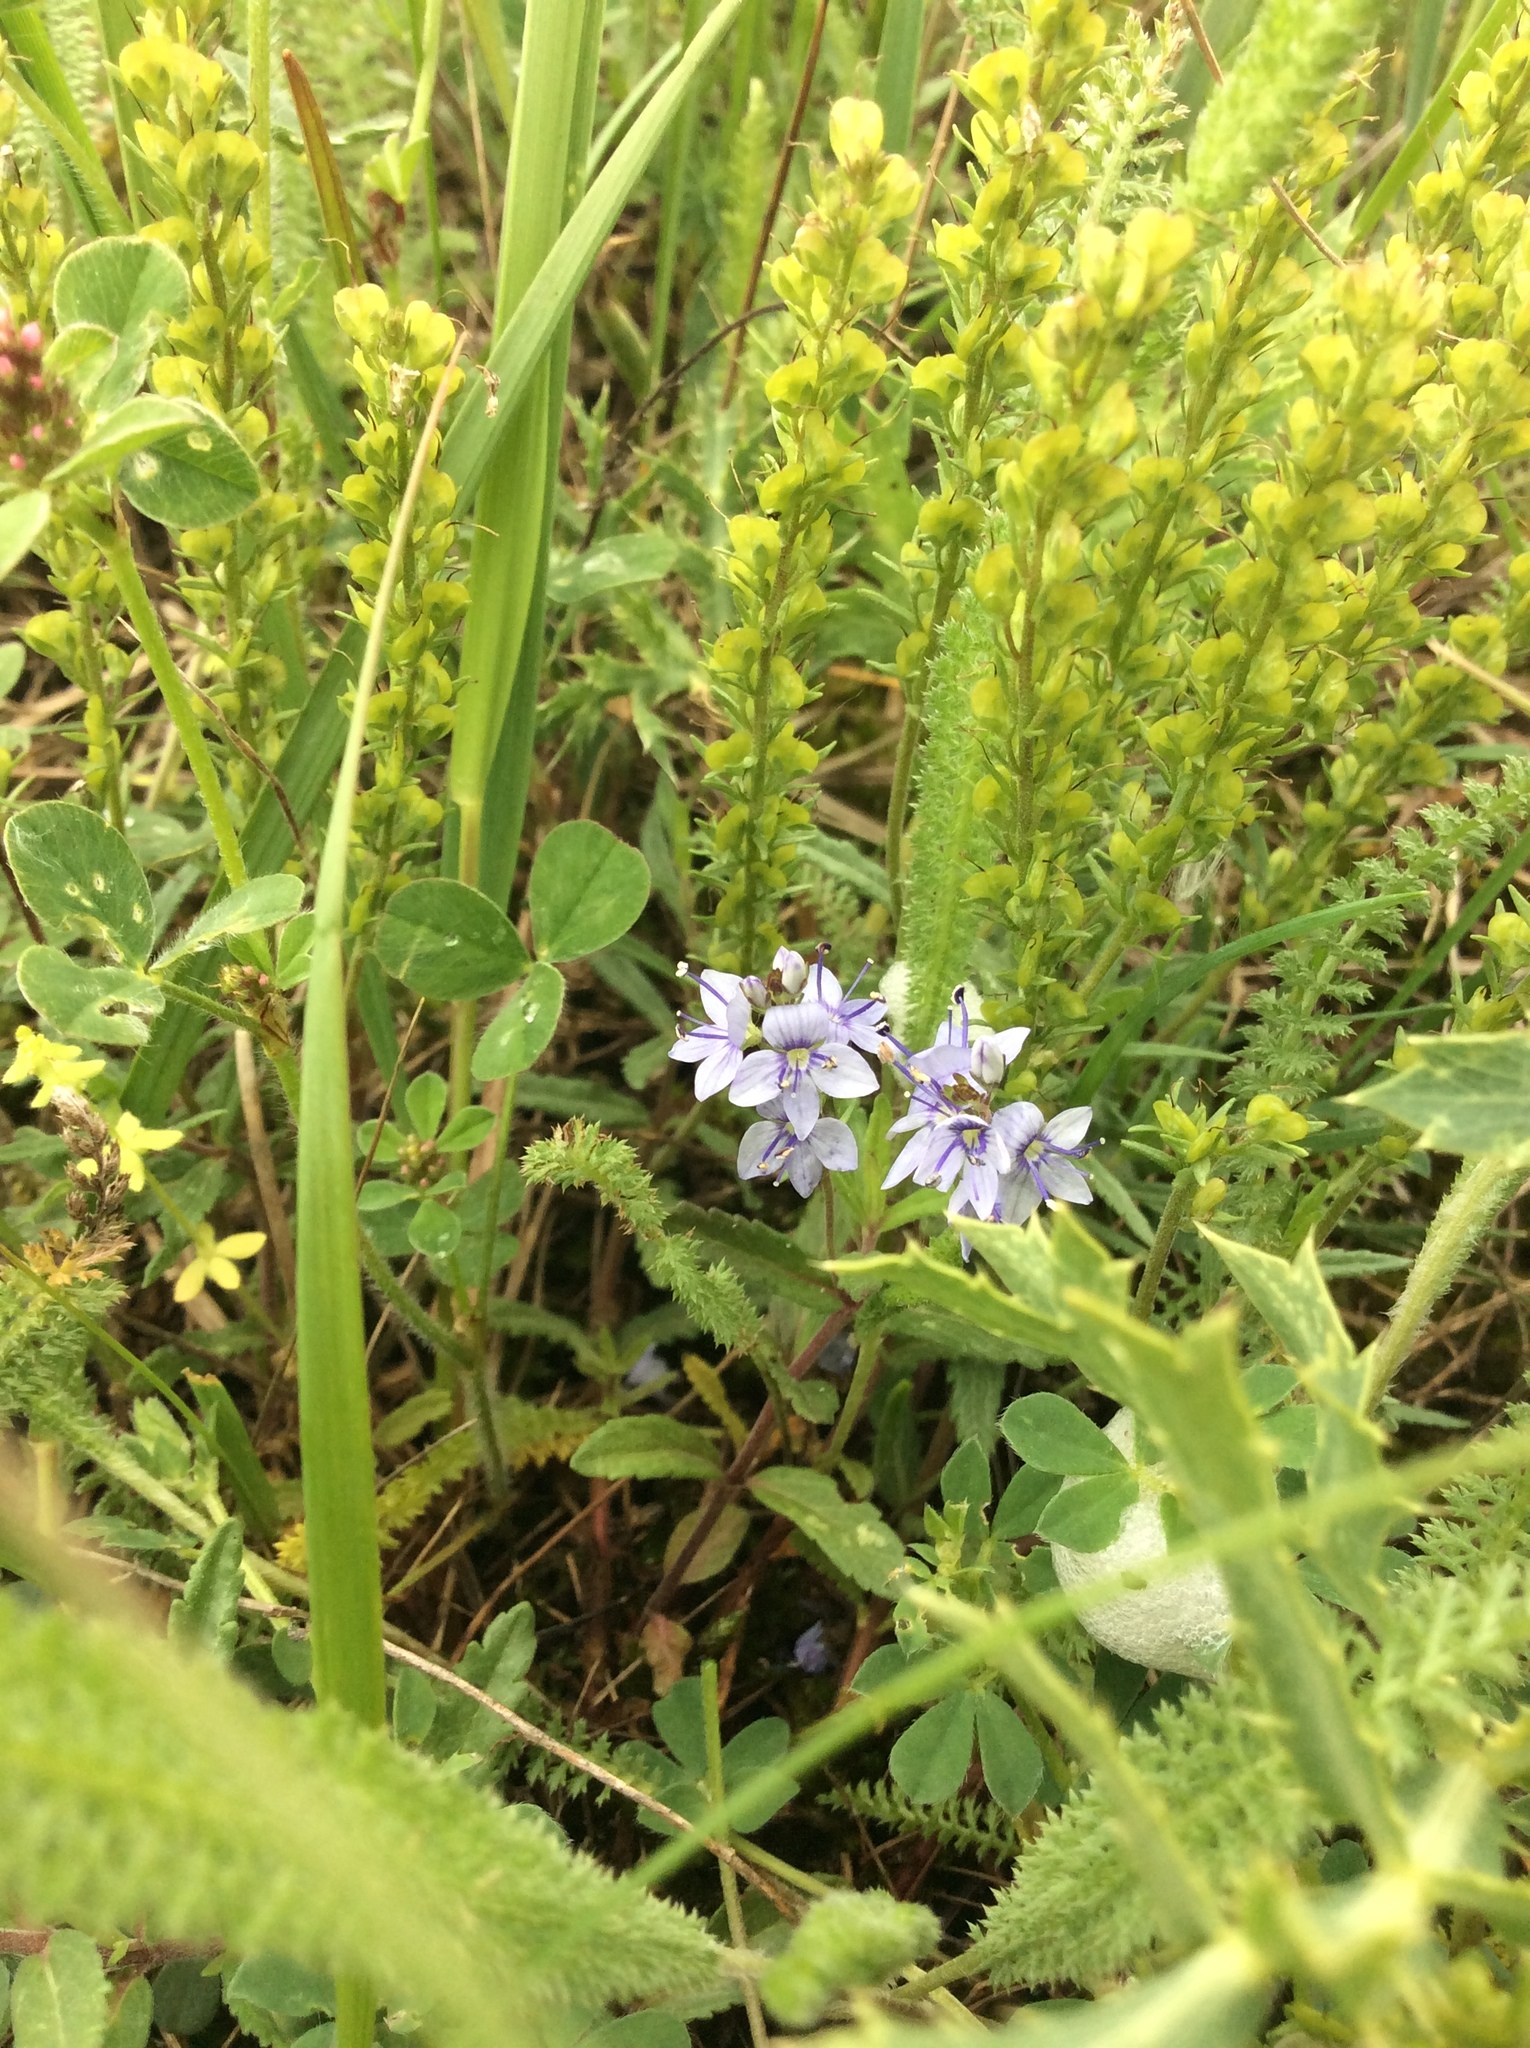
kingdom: Plantae
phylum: Tracheophyta
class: Magnoliopsida
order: Lamiales
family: Plantaginaceae
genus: Veronica
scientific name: Veronica prostrata
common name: Prostrate speedwell
